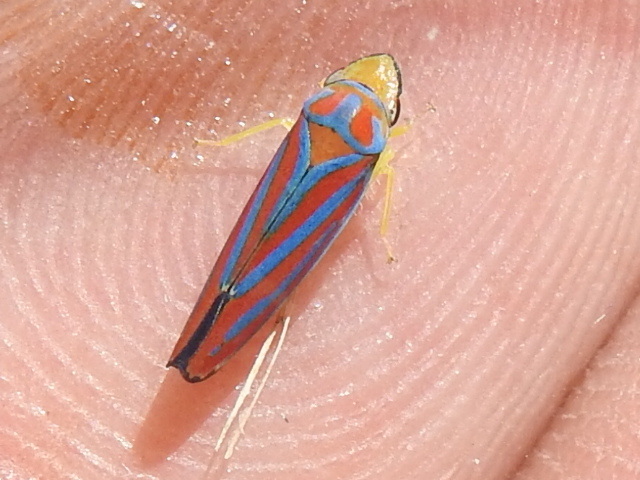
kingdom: Animalia
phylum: Arthropoda
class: Insecta
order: Hemiptera
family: Cicadellidae
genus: Graphocephala
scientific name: Graphocephala coccinea
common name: Candy-striped leafhopper
